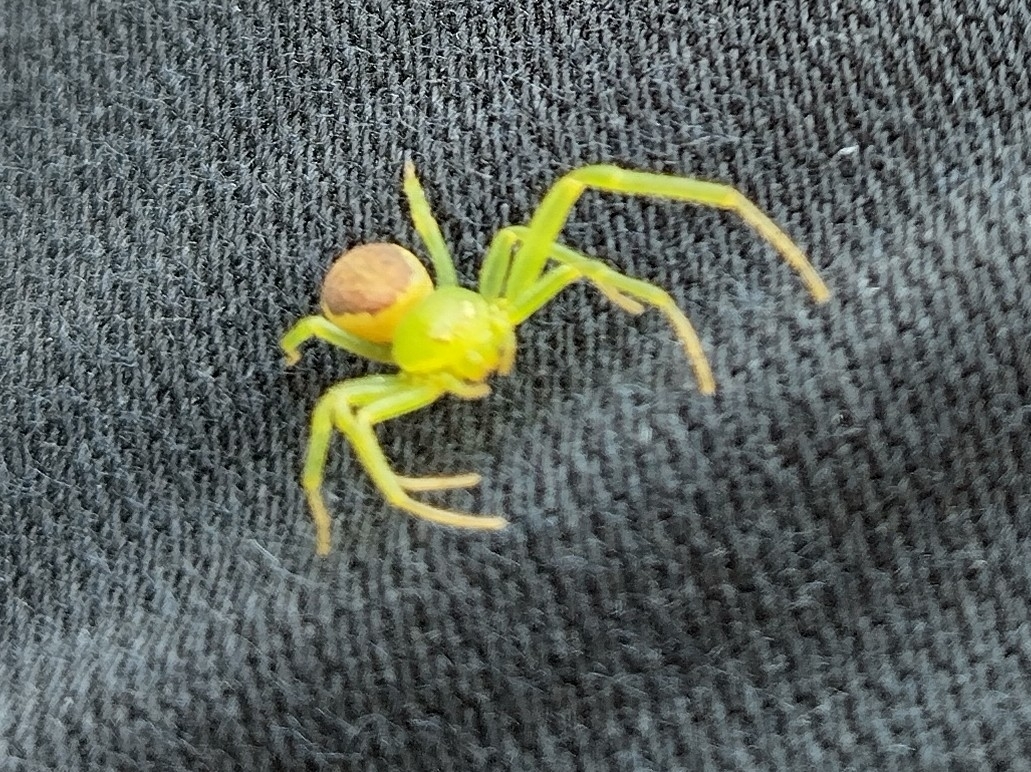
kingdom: Animalia
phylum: Arthropoda
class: Arachnida
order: Araneae
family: Thomisidae
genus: Diaea
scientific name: Diaea dorsata
